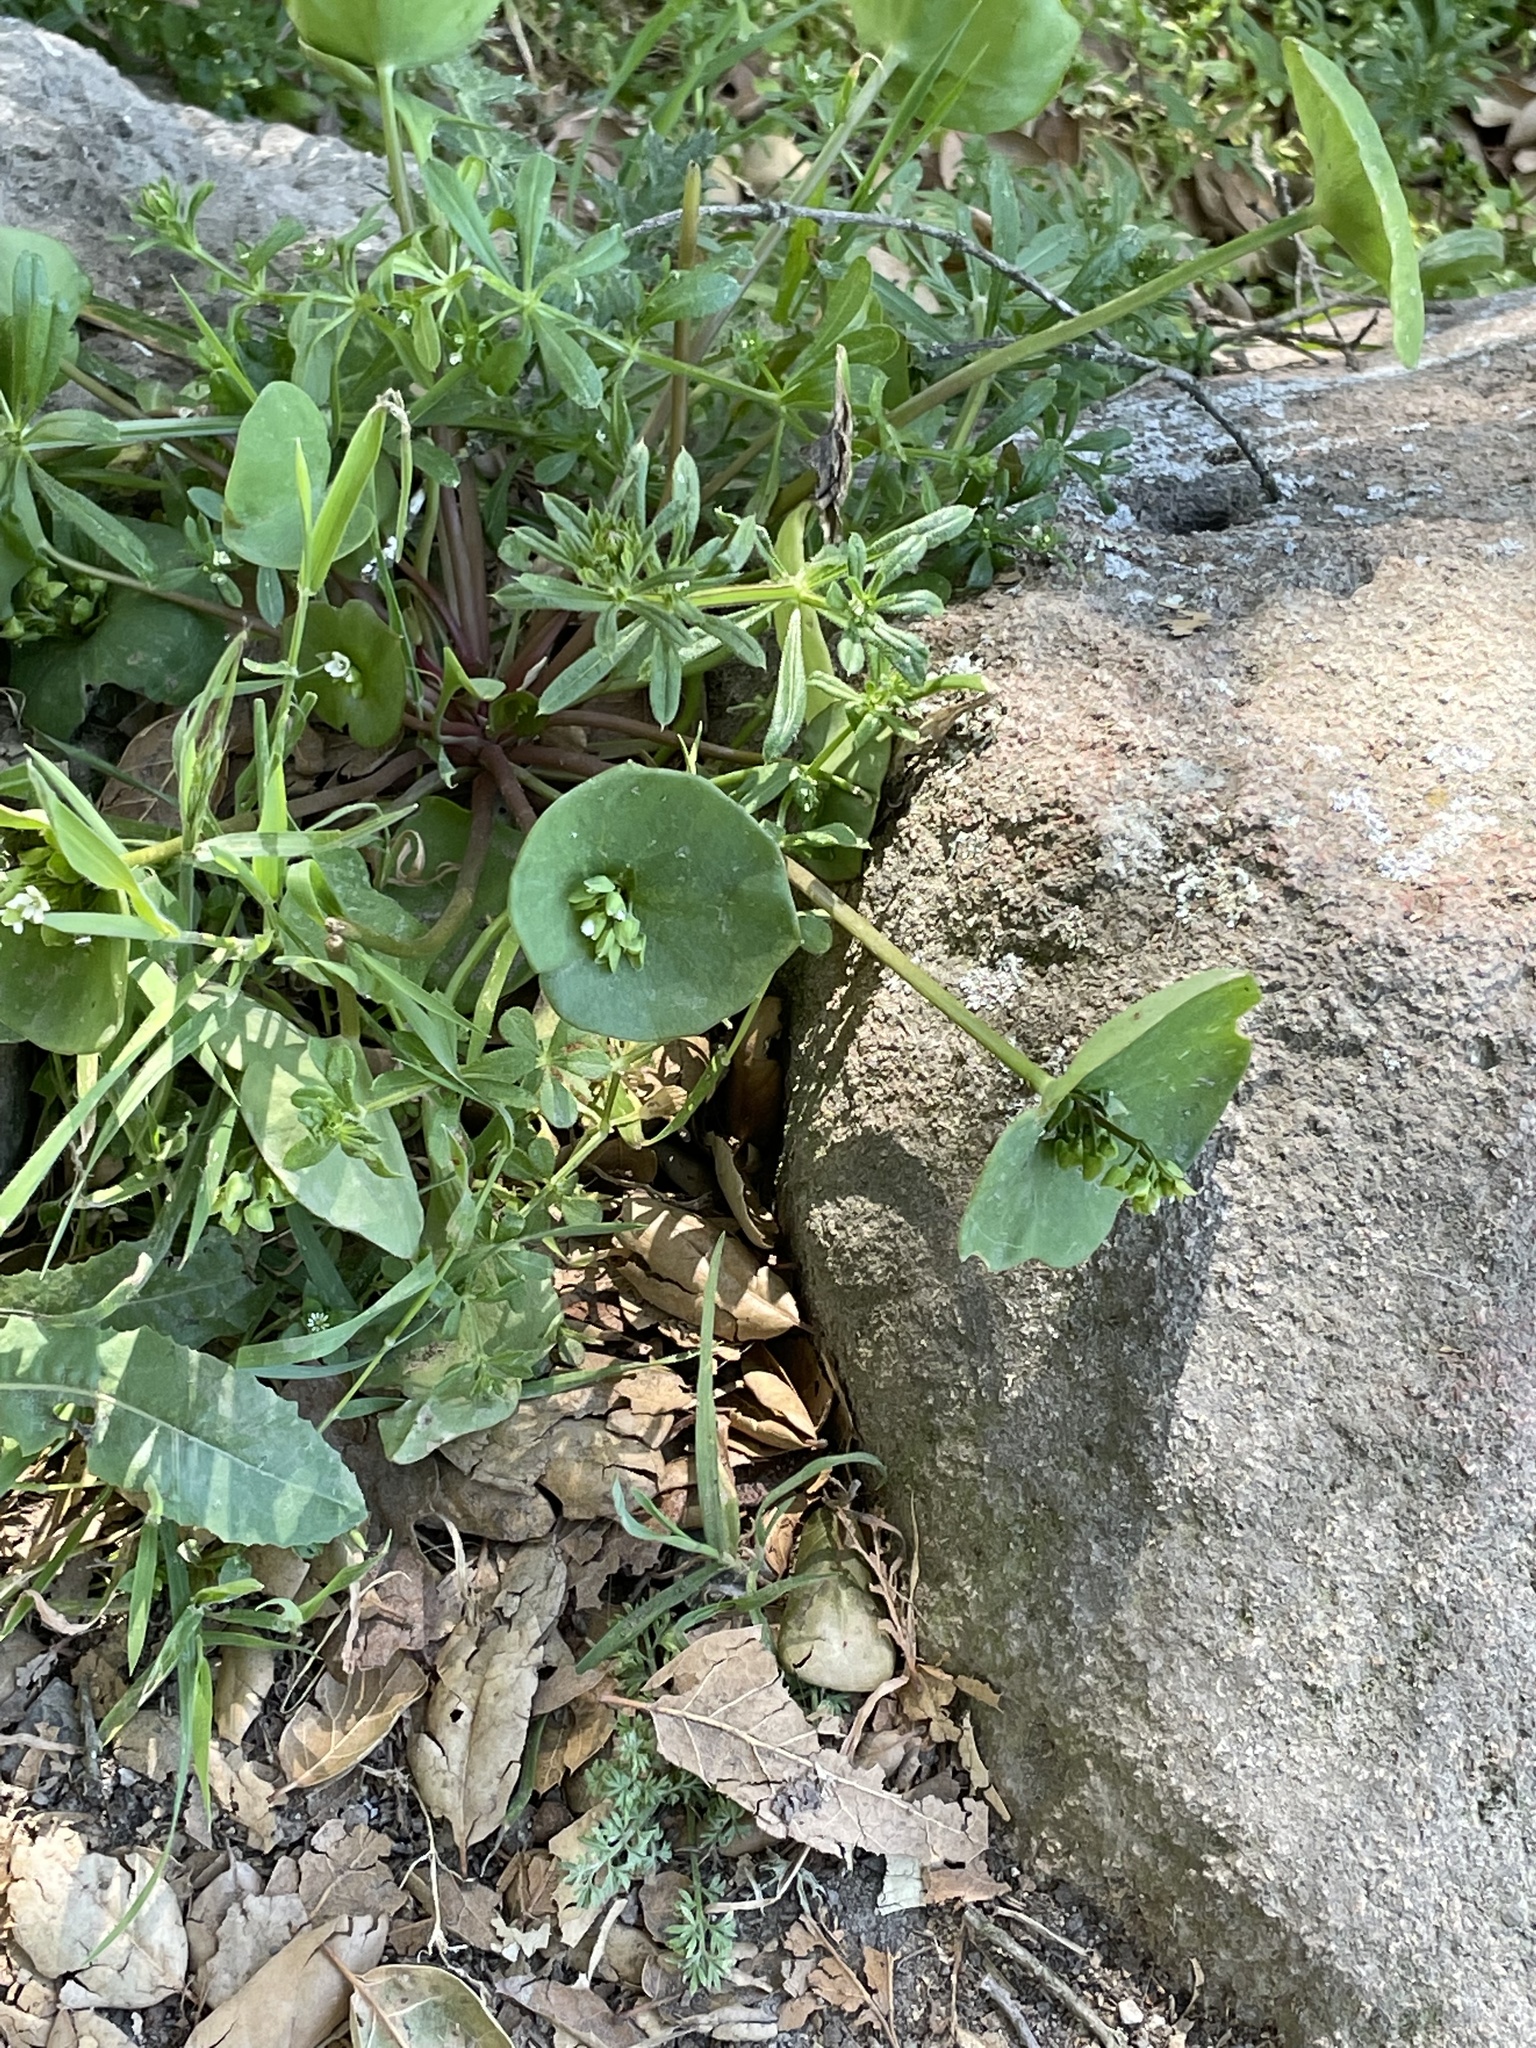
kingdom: Plantae
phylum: Tracheophyta
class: Magnoliopsida
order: Caryophyllales
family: Montiaceae
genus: Claytonia
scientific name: Claytonia perfoliata
